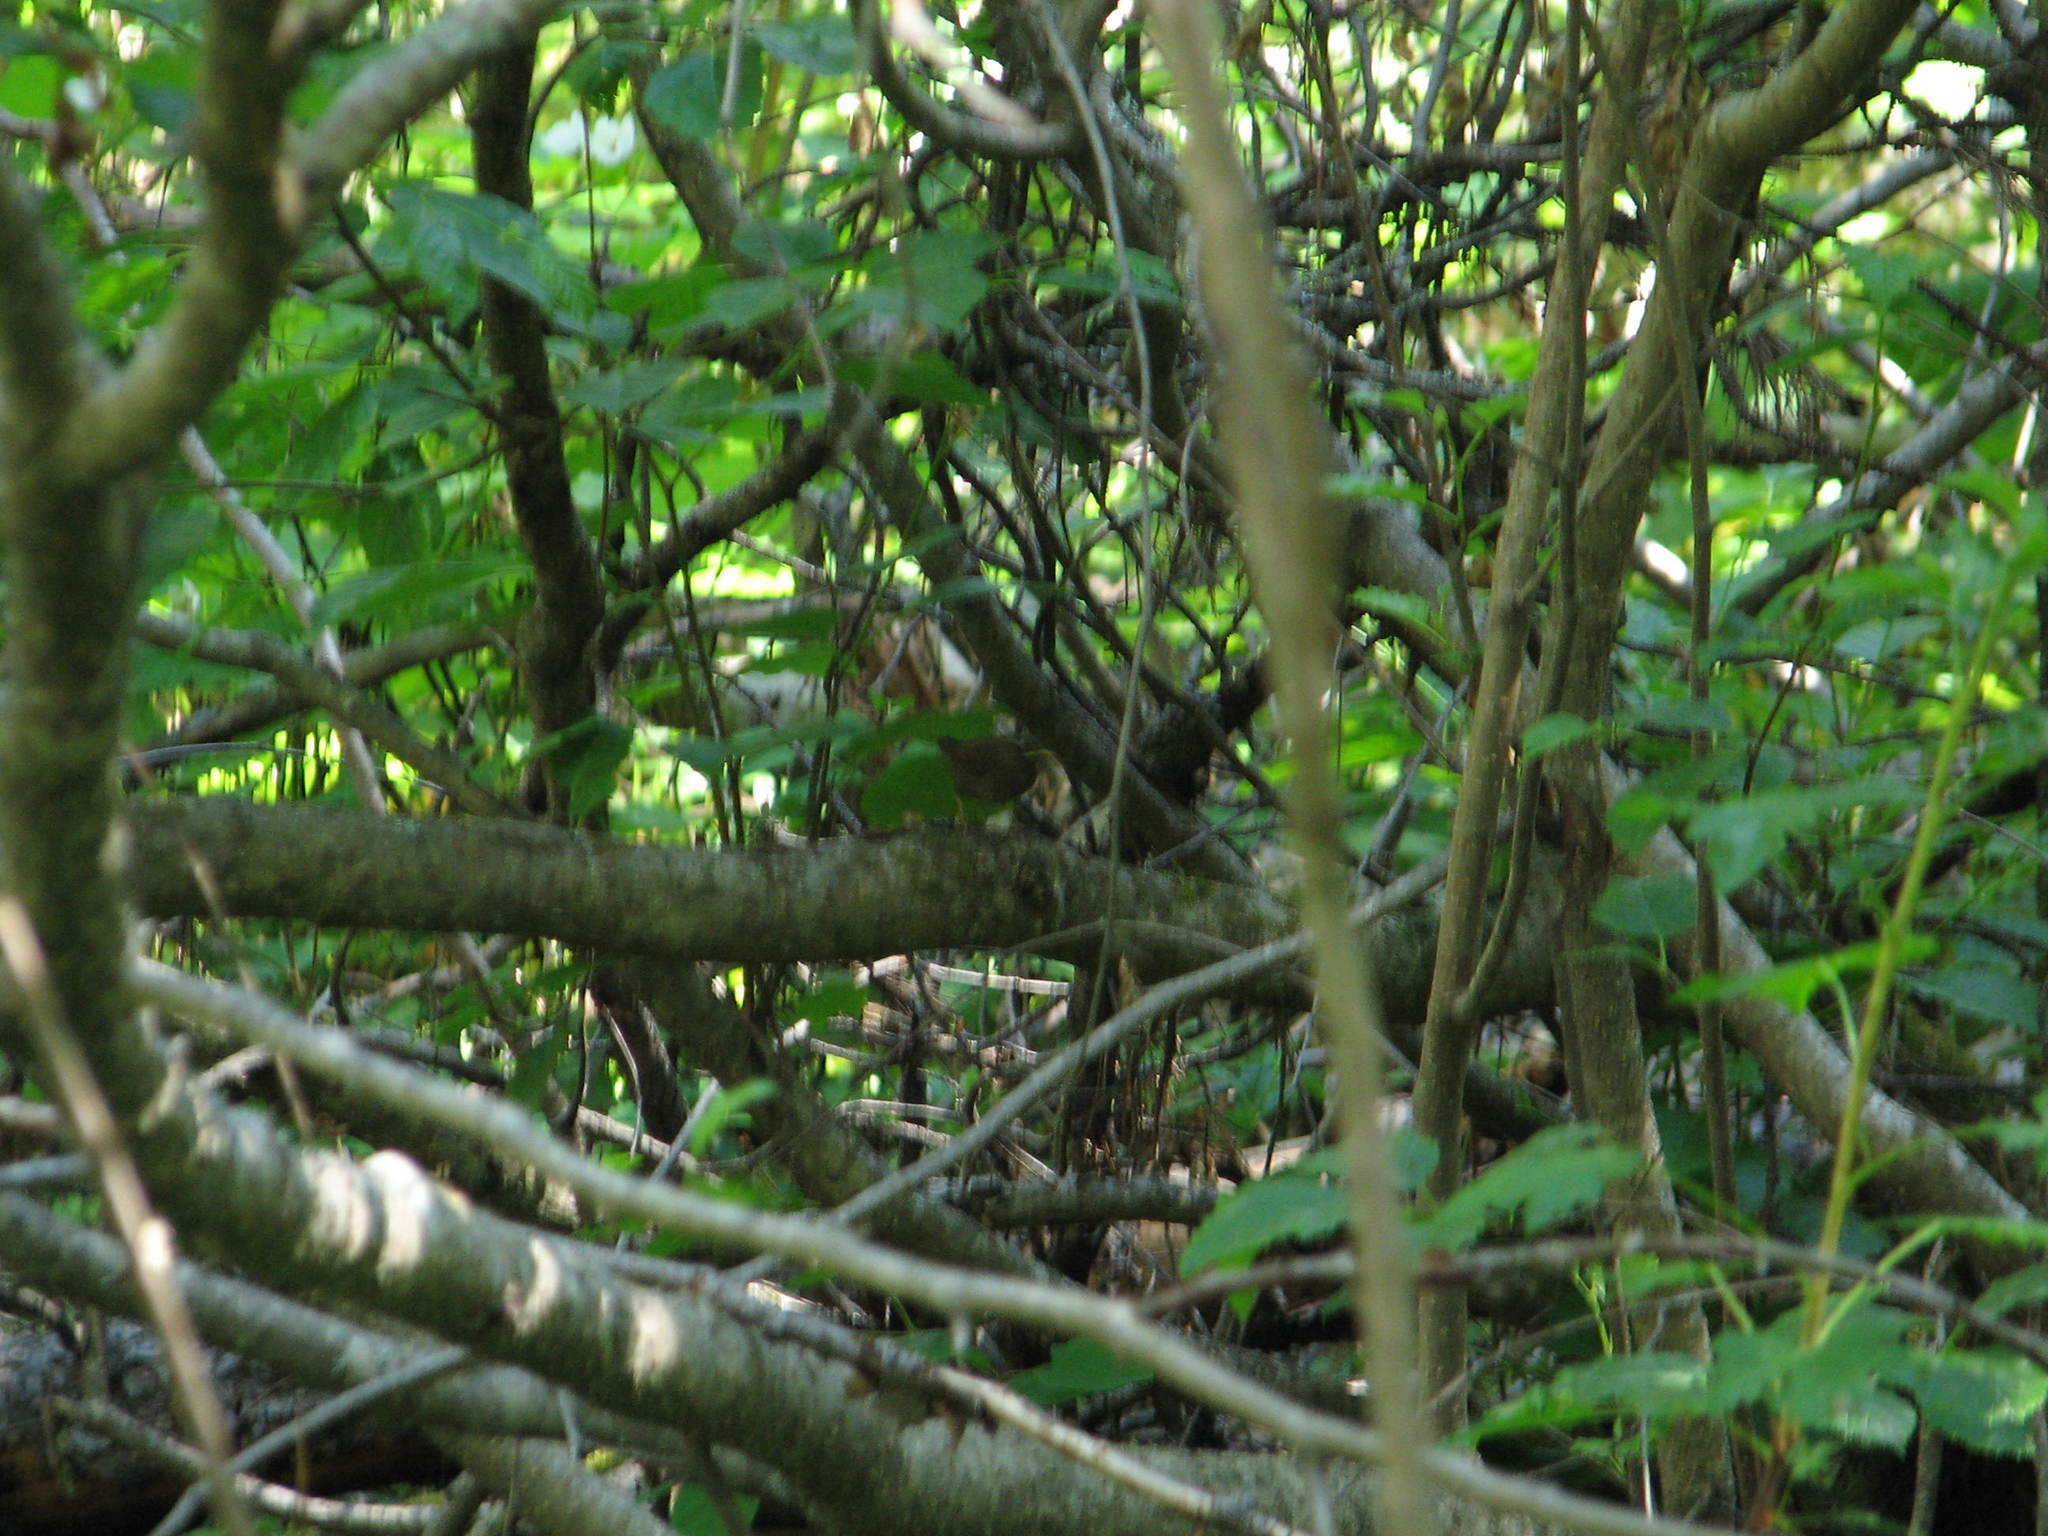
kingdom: Animalia
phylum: Chordata
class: Aves
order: Passeriformes
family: Troglodytidae
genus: Troglodytes
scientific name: Troglodytes pacificus
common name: Pacific wren
